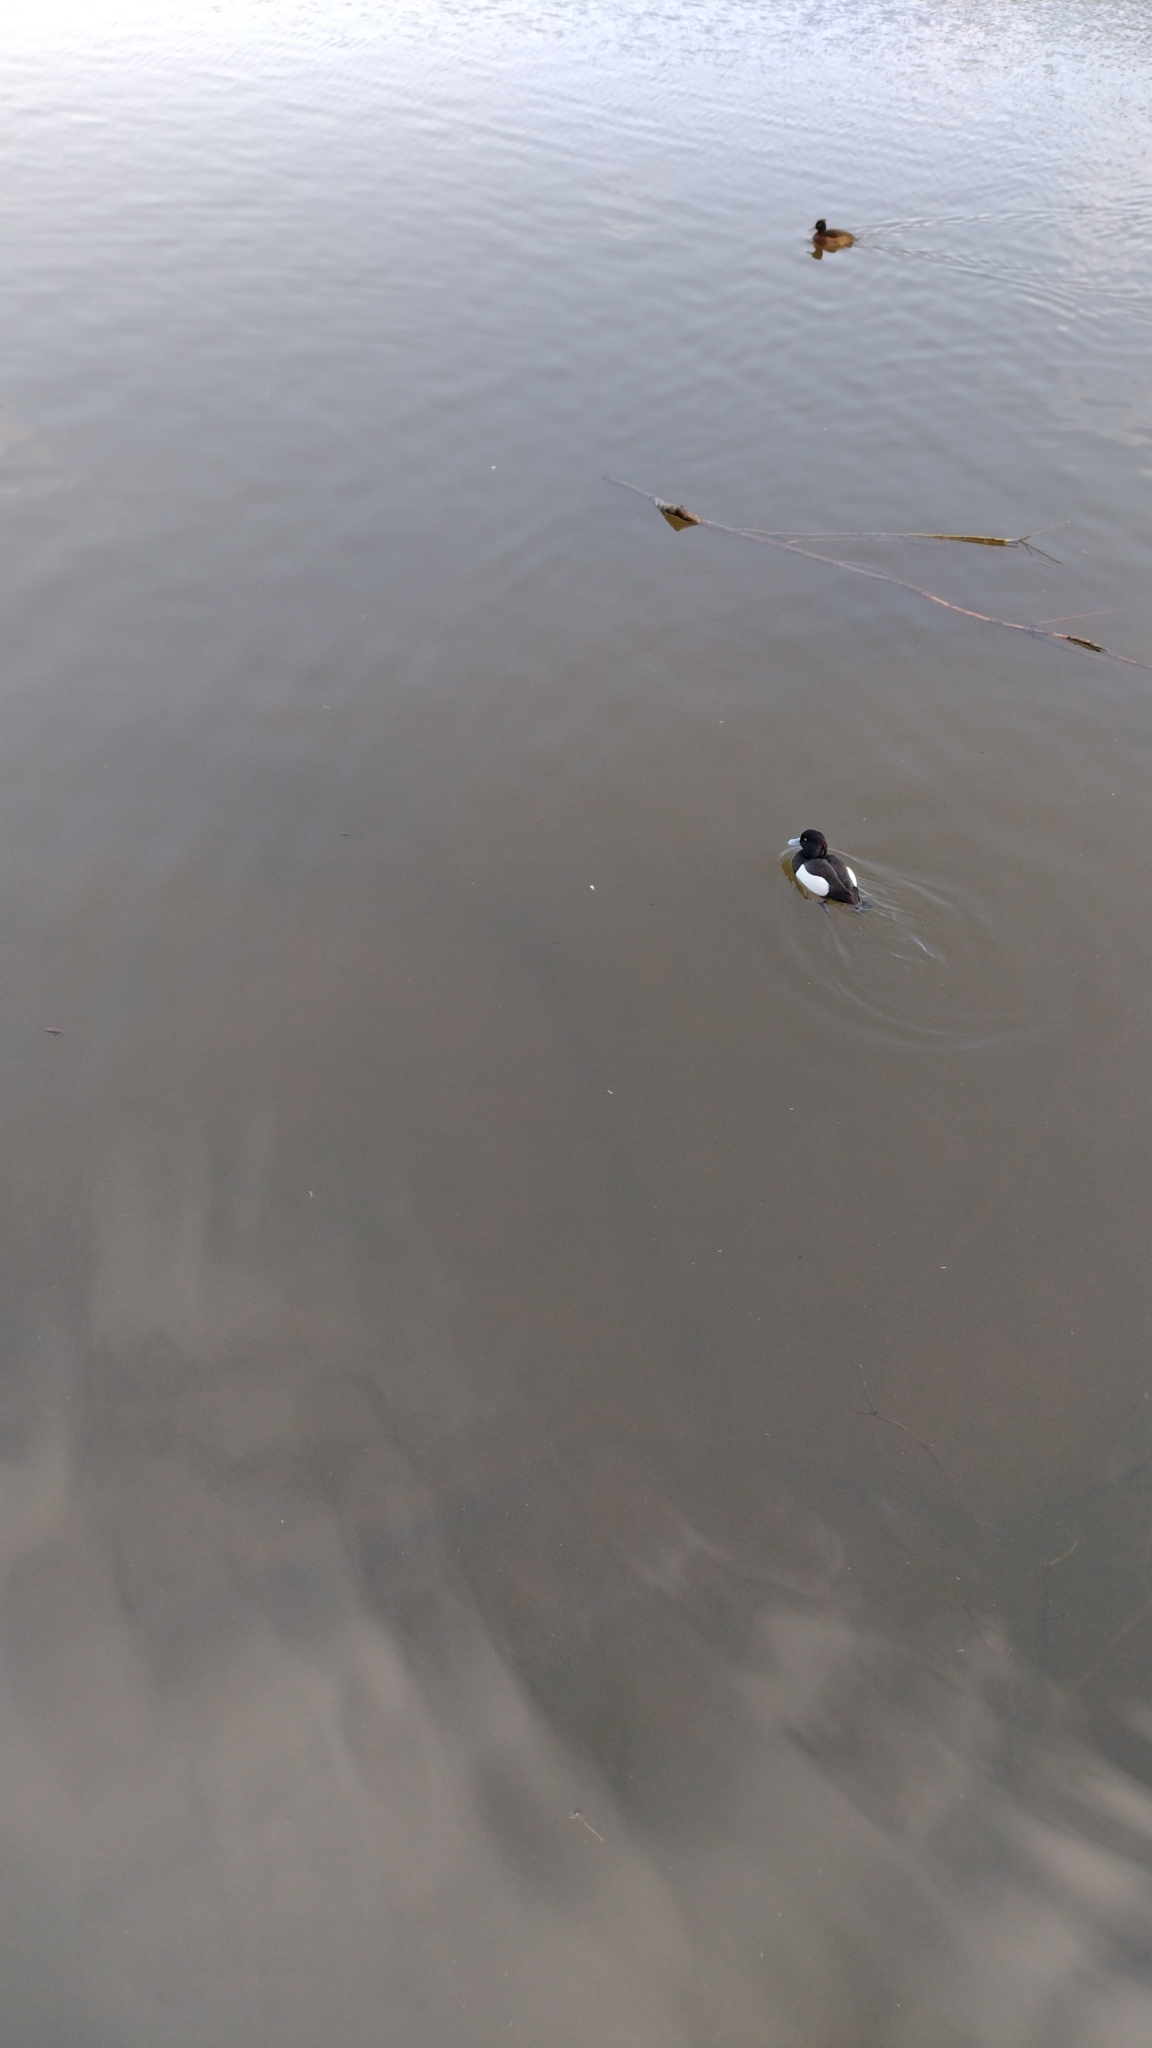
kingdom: Animalia
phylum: Chordata
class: Aves
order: Anseriformes
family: Anatidae
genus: Aythya
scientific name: Aythya fuligula
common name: Tufted duck
